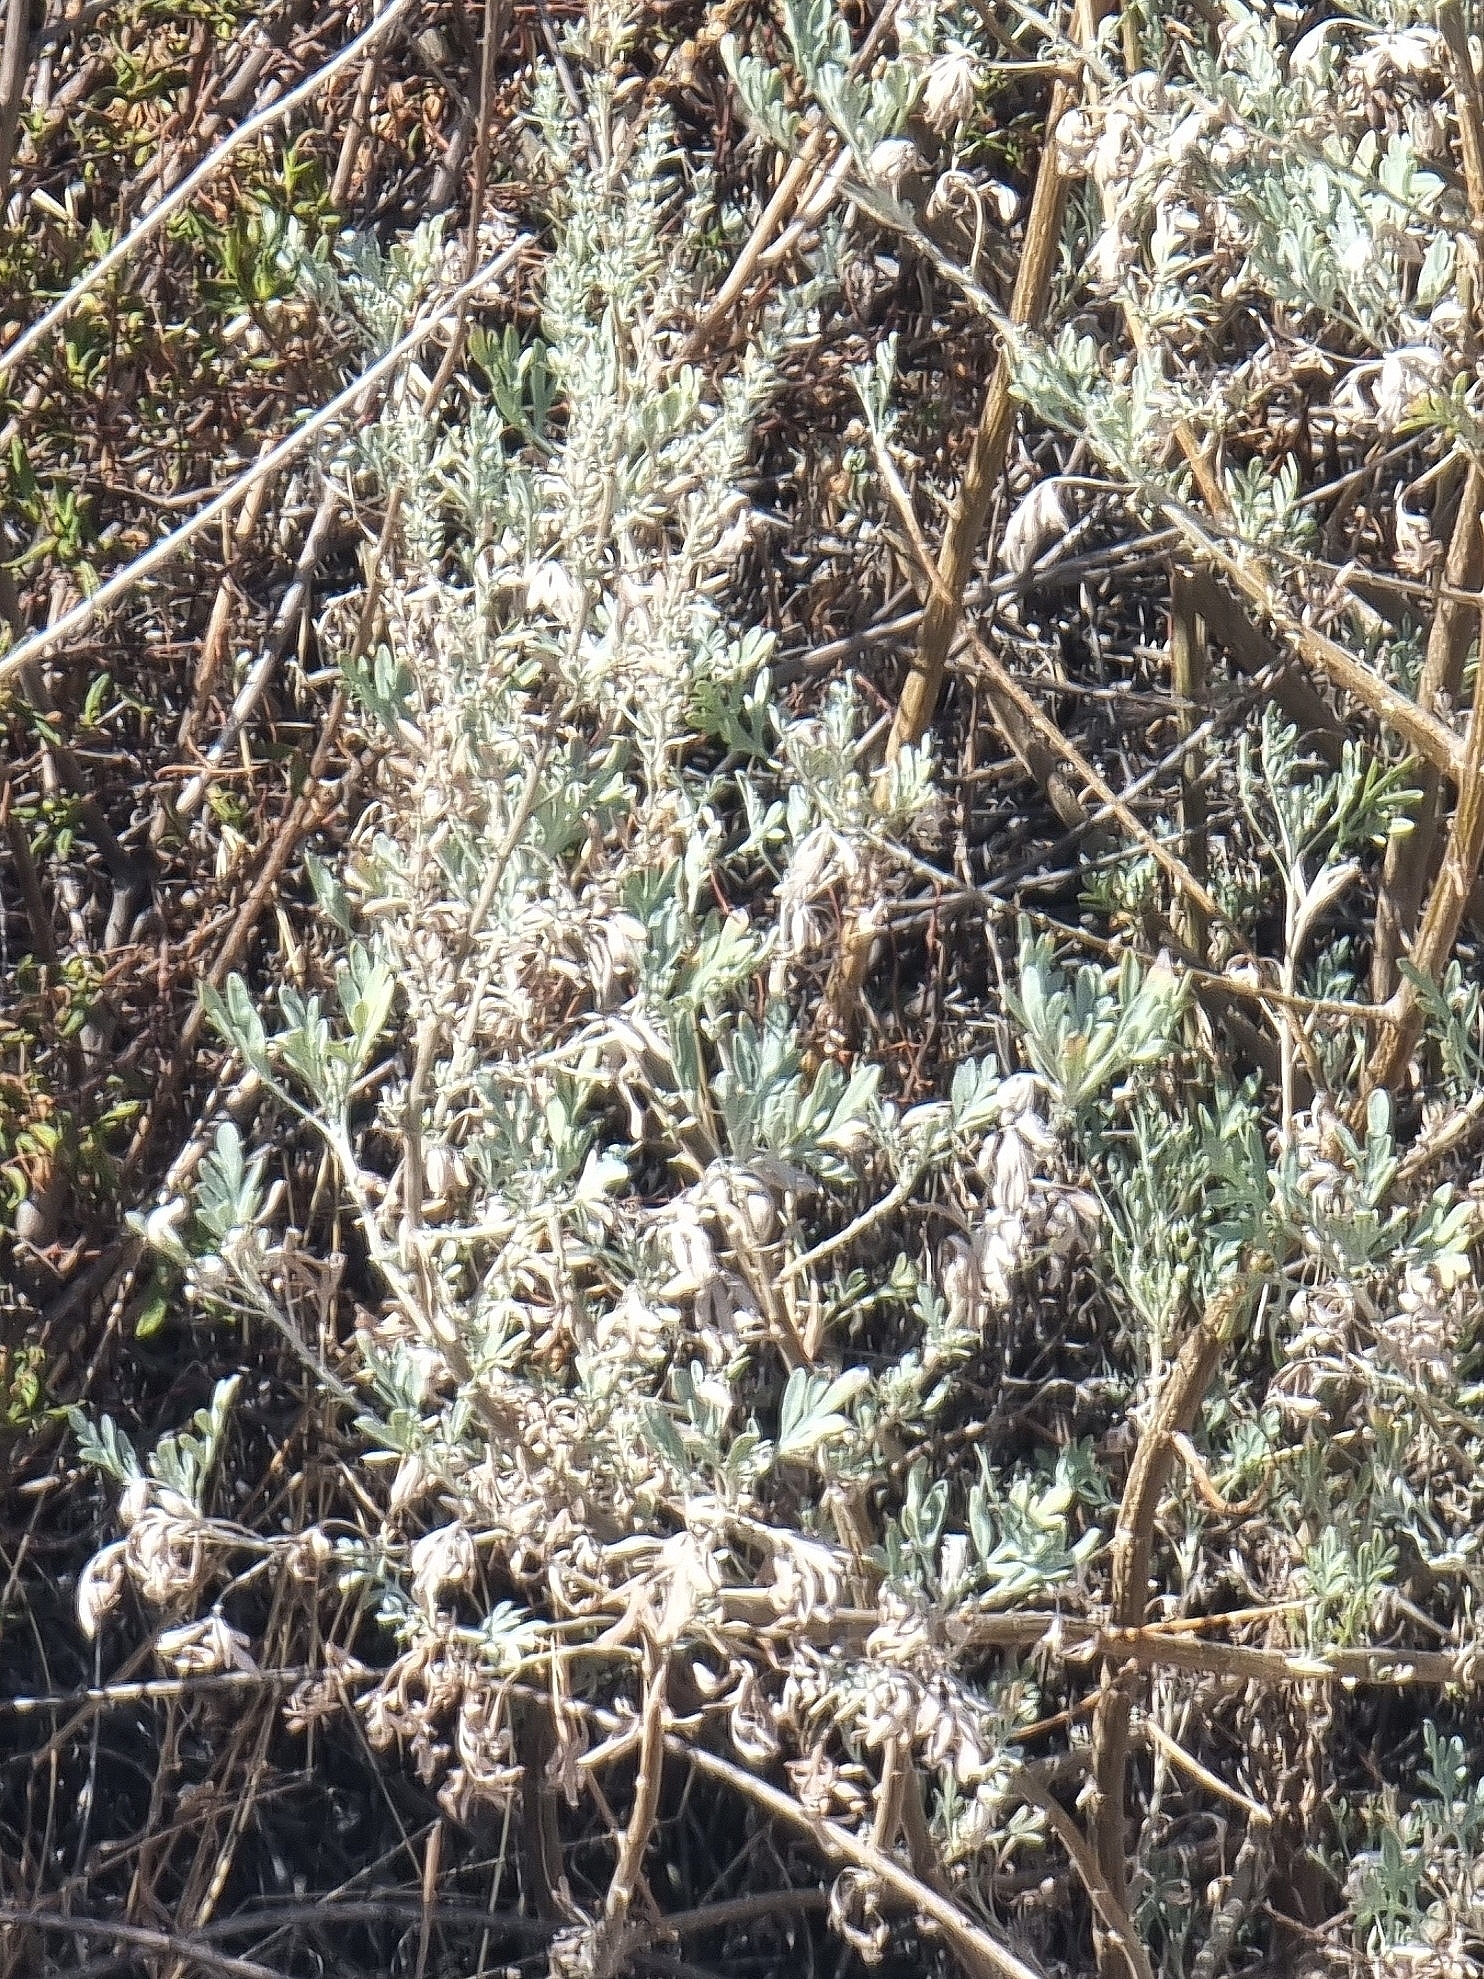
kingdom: Plantae
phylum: Tracheophyta
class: Magnoliopsida
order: Asterales
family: Asteraceae
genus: Artemisia
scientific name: Artemisia thuscula
